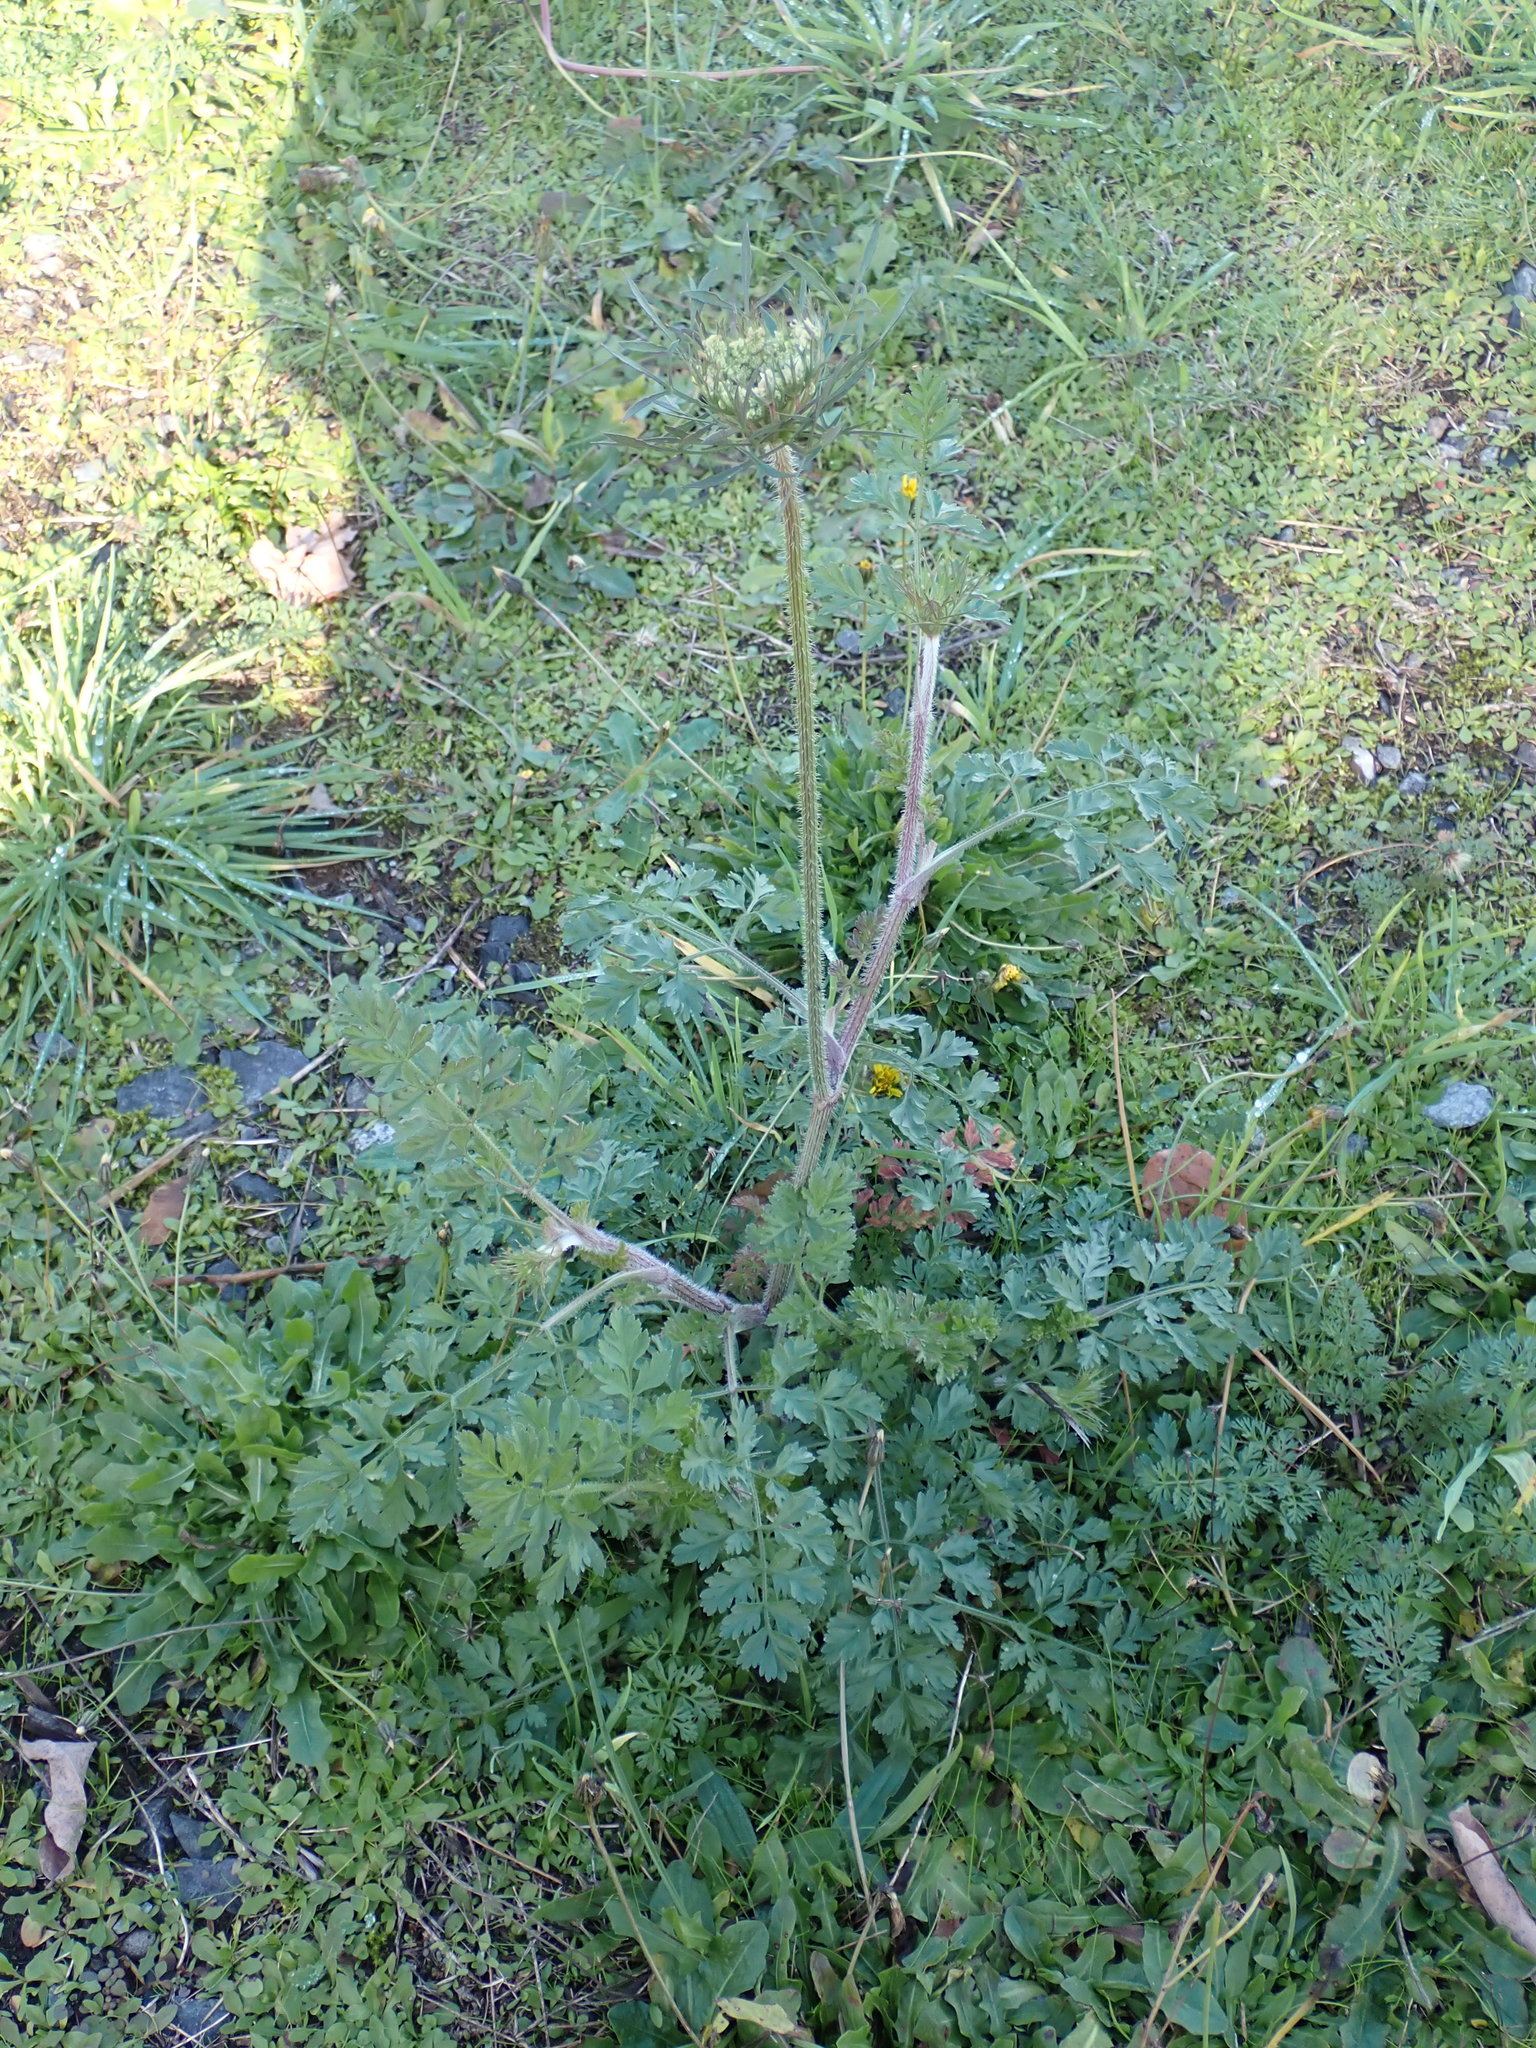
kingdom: Plantae
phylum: Tracheophyta
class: Magnoliopsida
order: Apiales
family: Apiaceae
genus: Daucus
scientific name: Daucus carota
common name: Wild carrot
